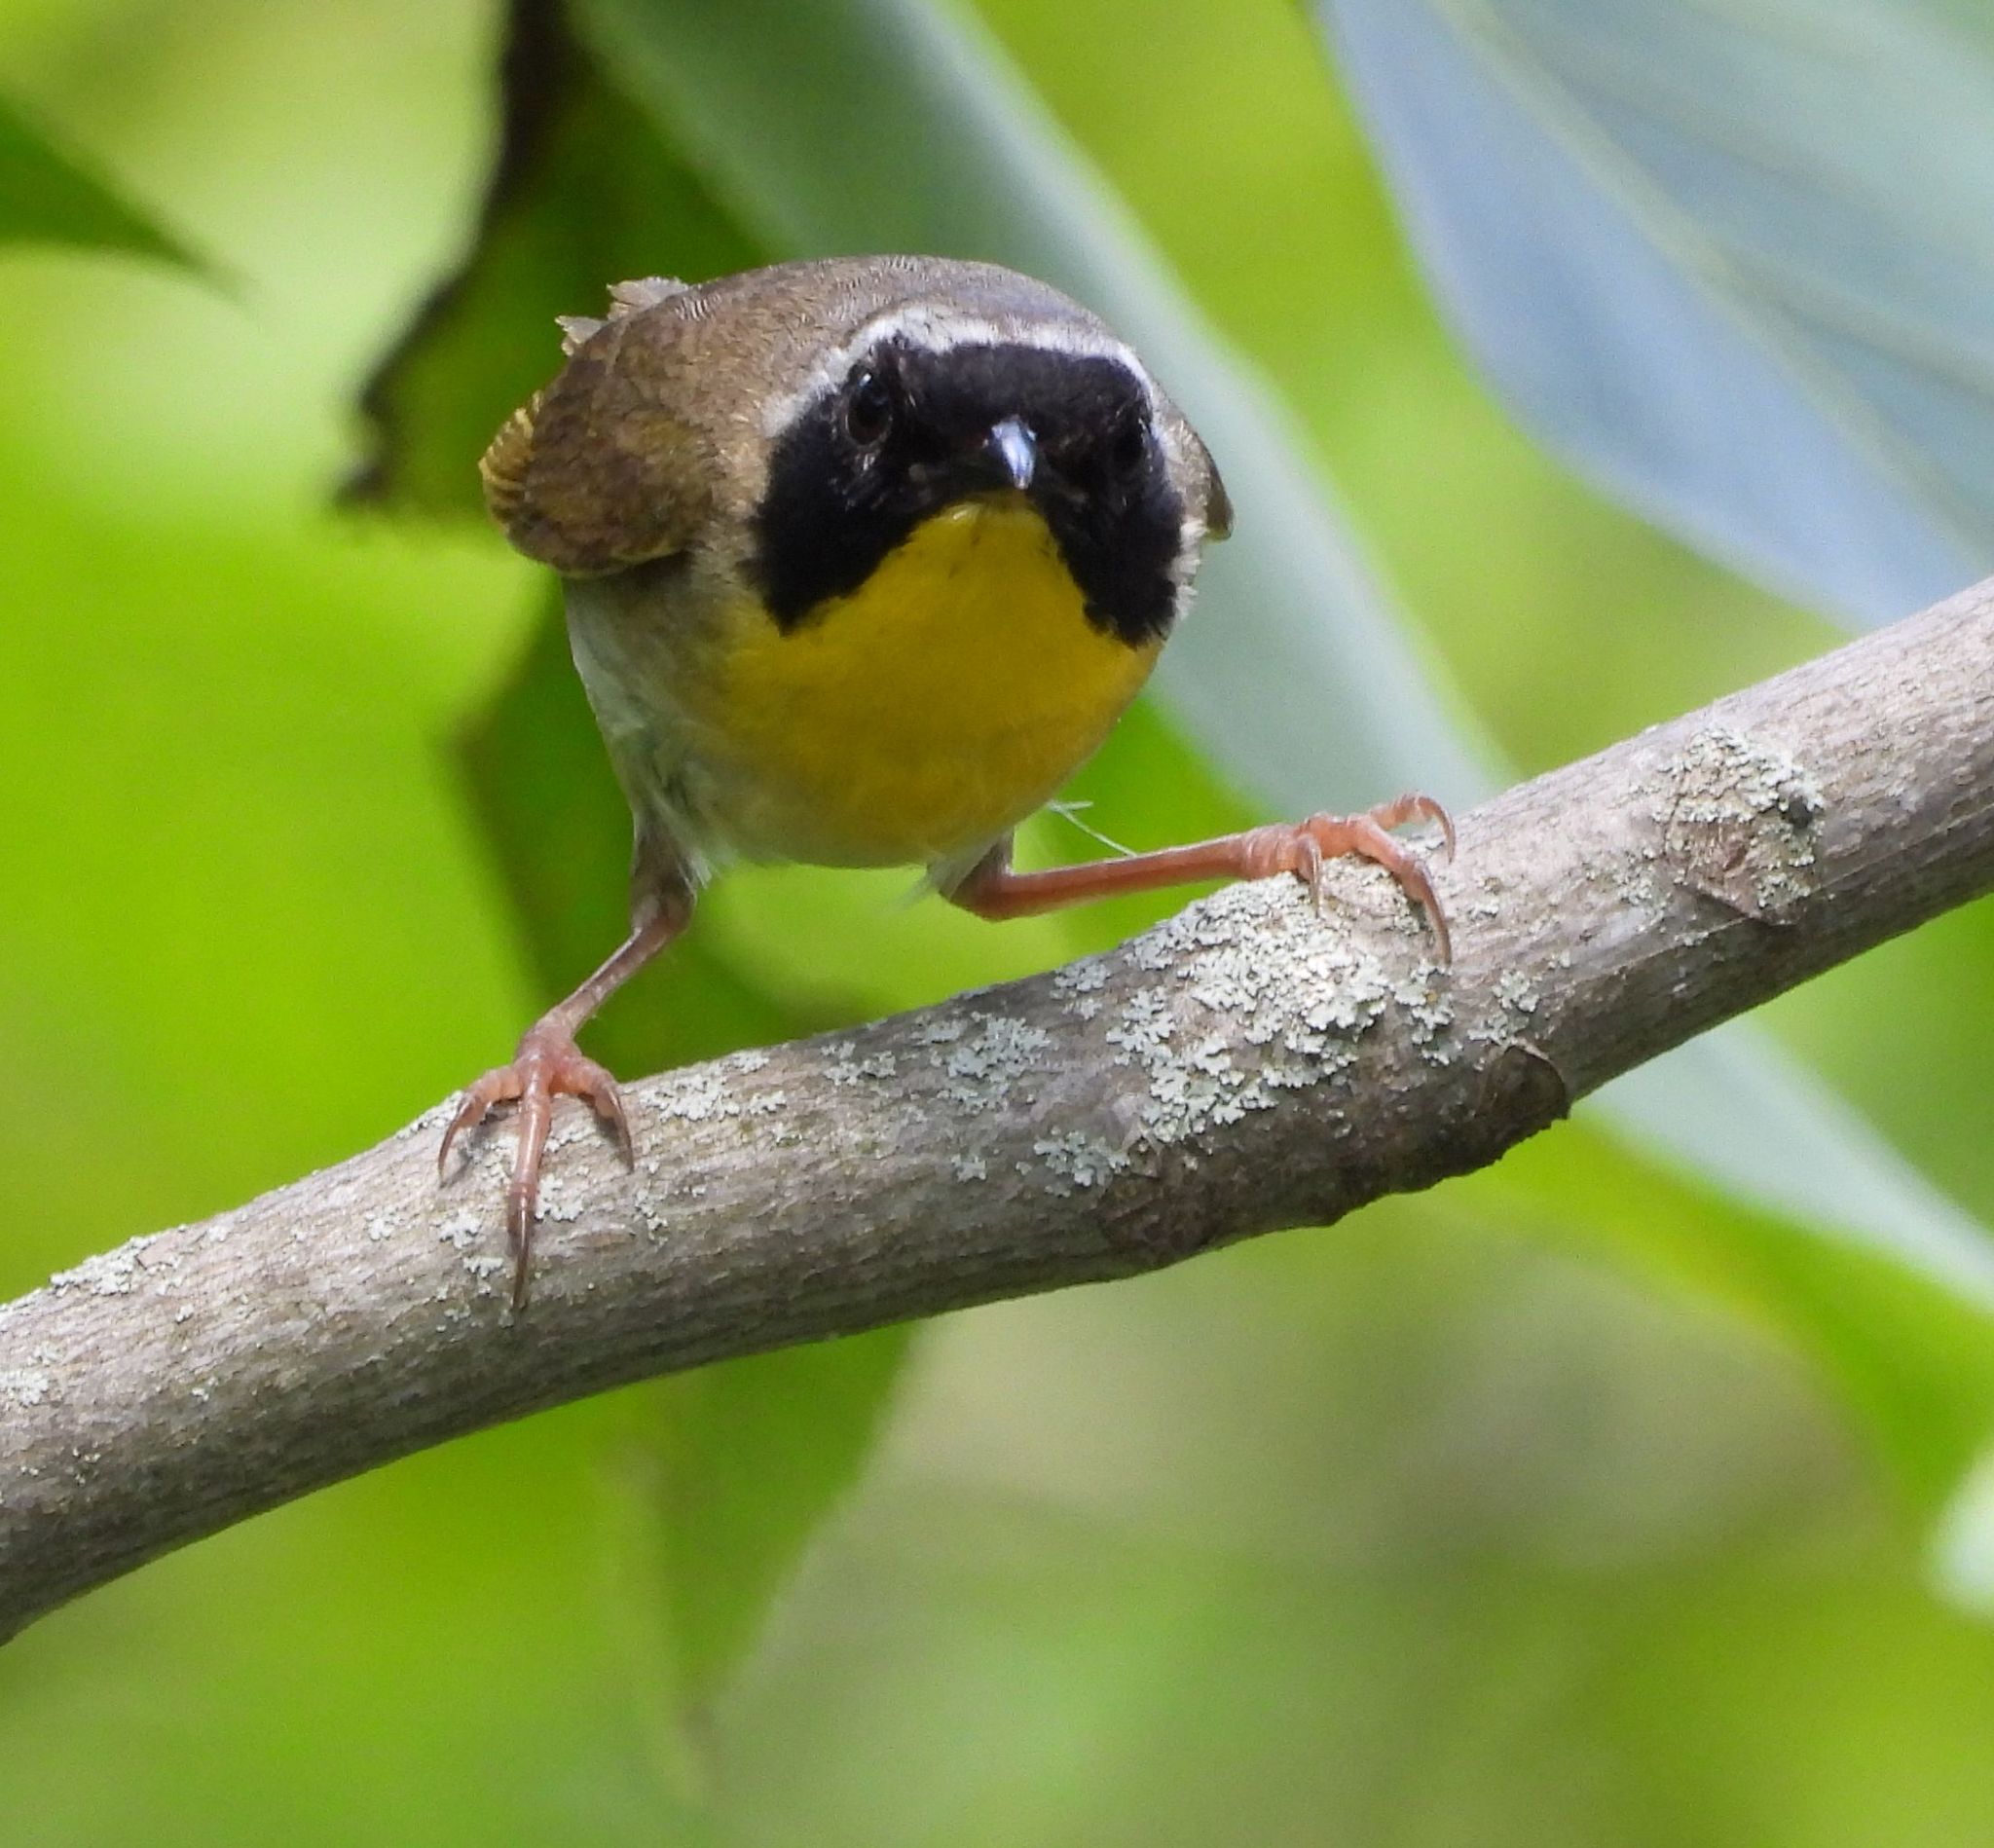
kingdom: Animalia
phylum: Chordata
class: Aves
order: Passeriformes
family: Parulidae
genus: Geothlypis
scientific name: Geothlypis trichas
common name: Common yellowthroat
